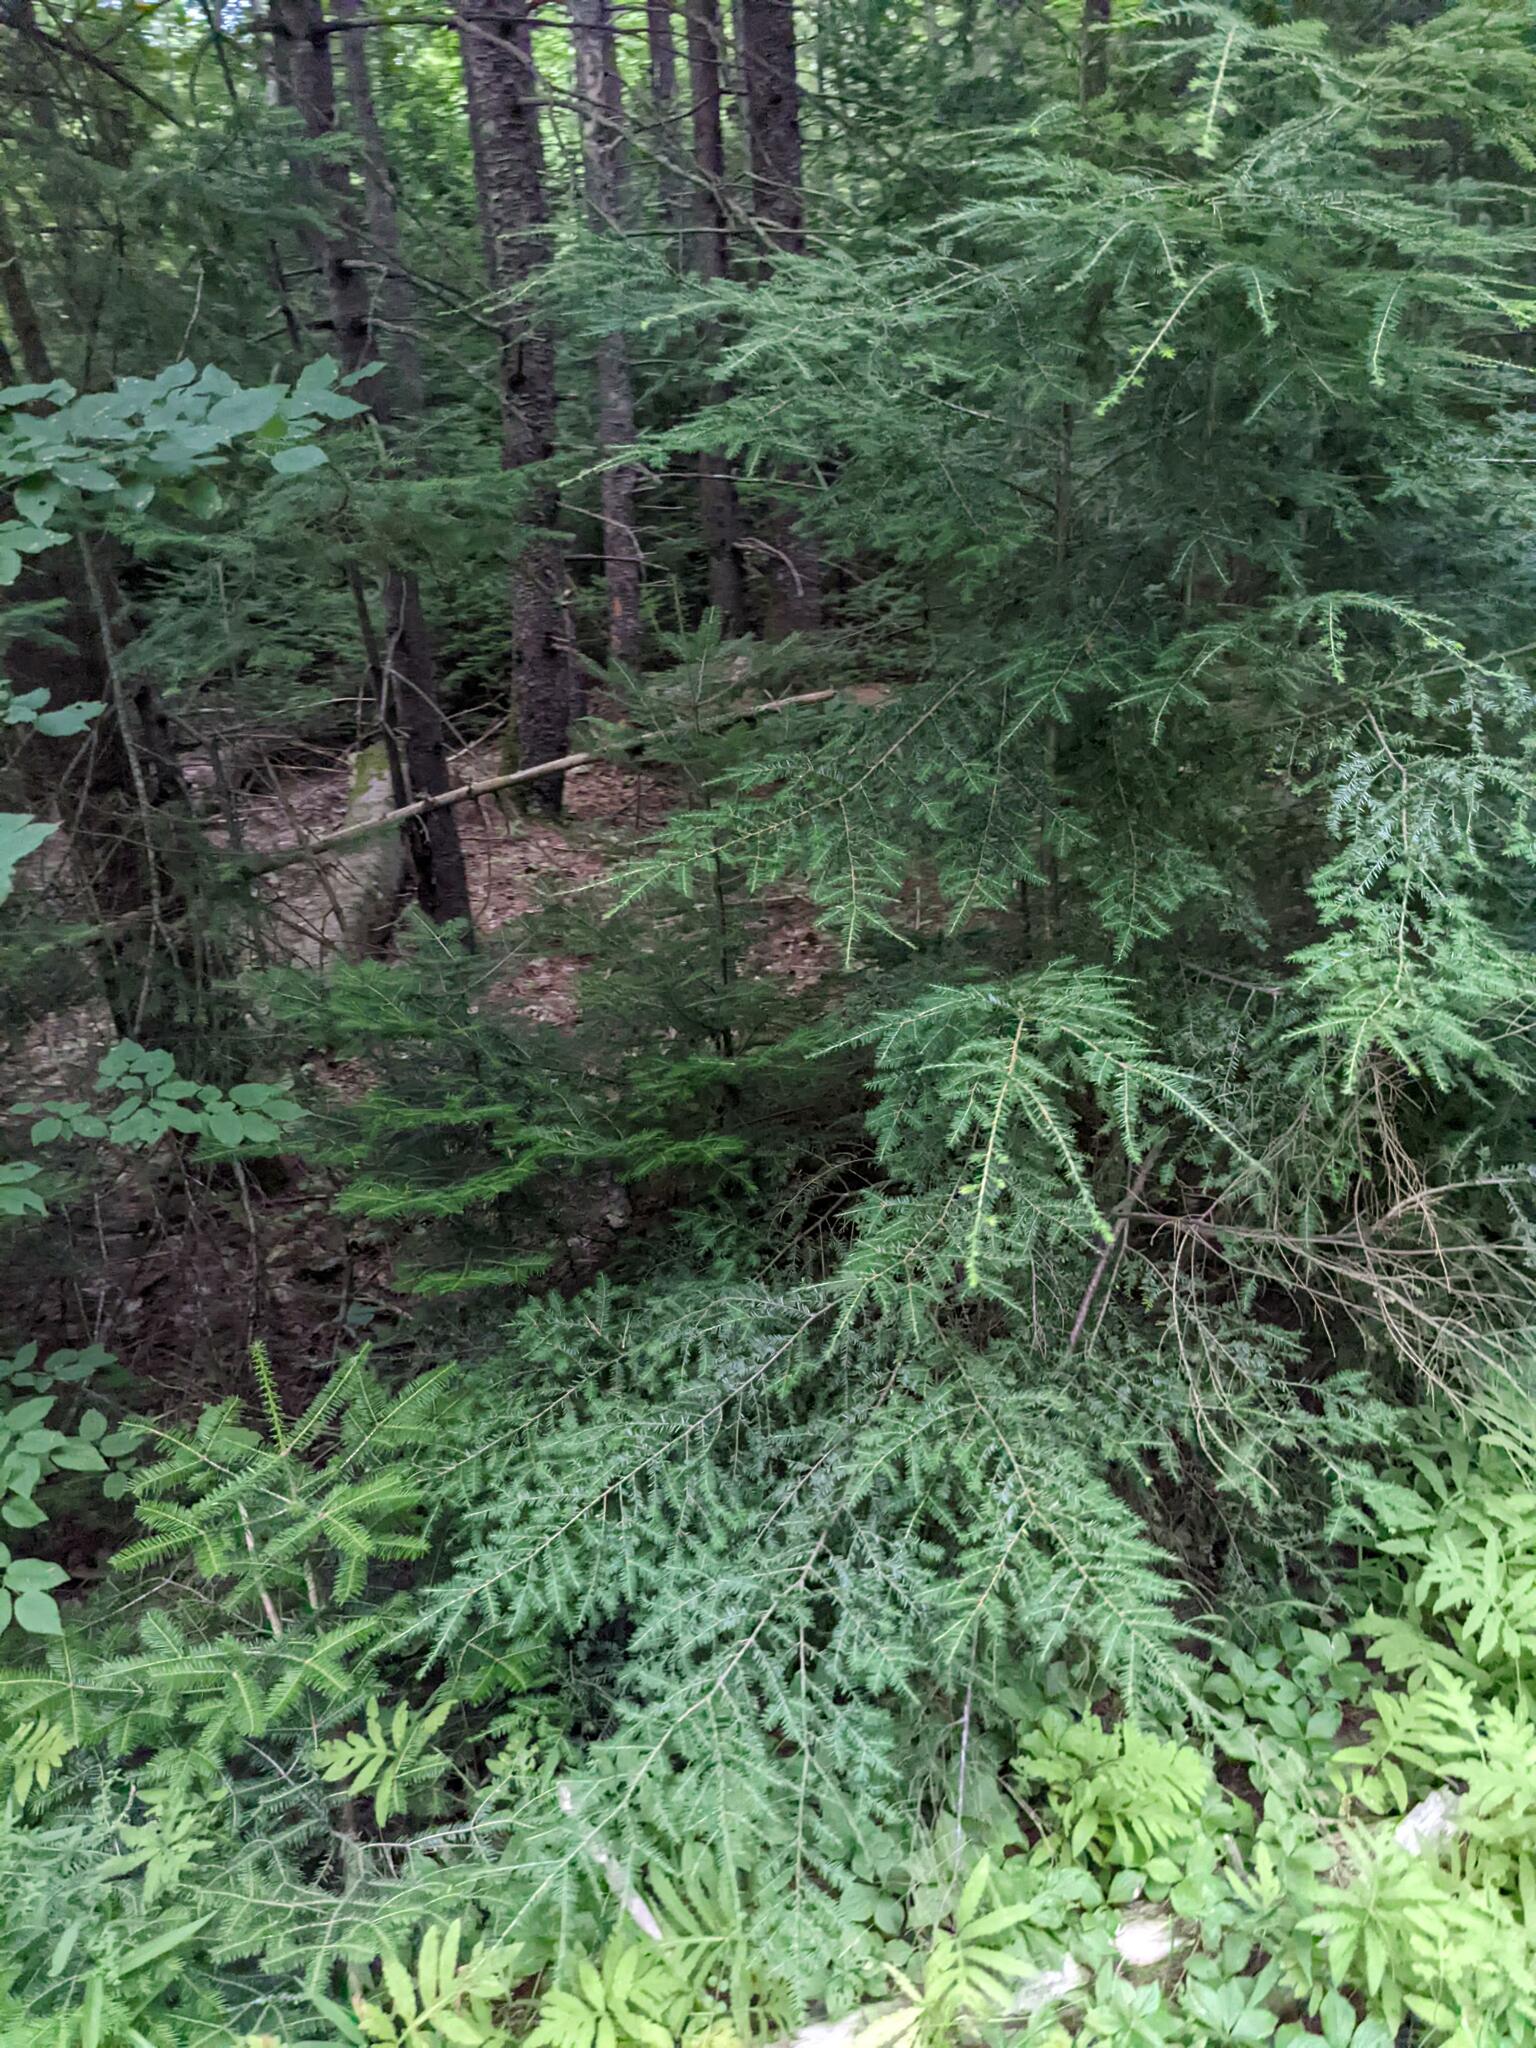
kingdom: Plantae
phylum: Tracheophyta
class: Pinopsida
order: Pinales
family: Pinaceae
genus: Tsuga
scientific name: Tsuga canadensis
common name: Eastern hemlock
